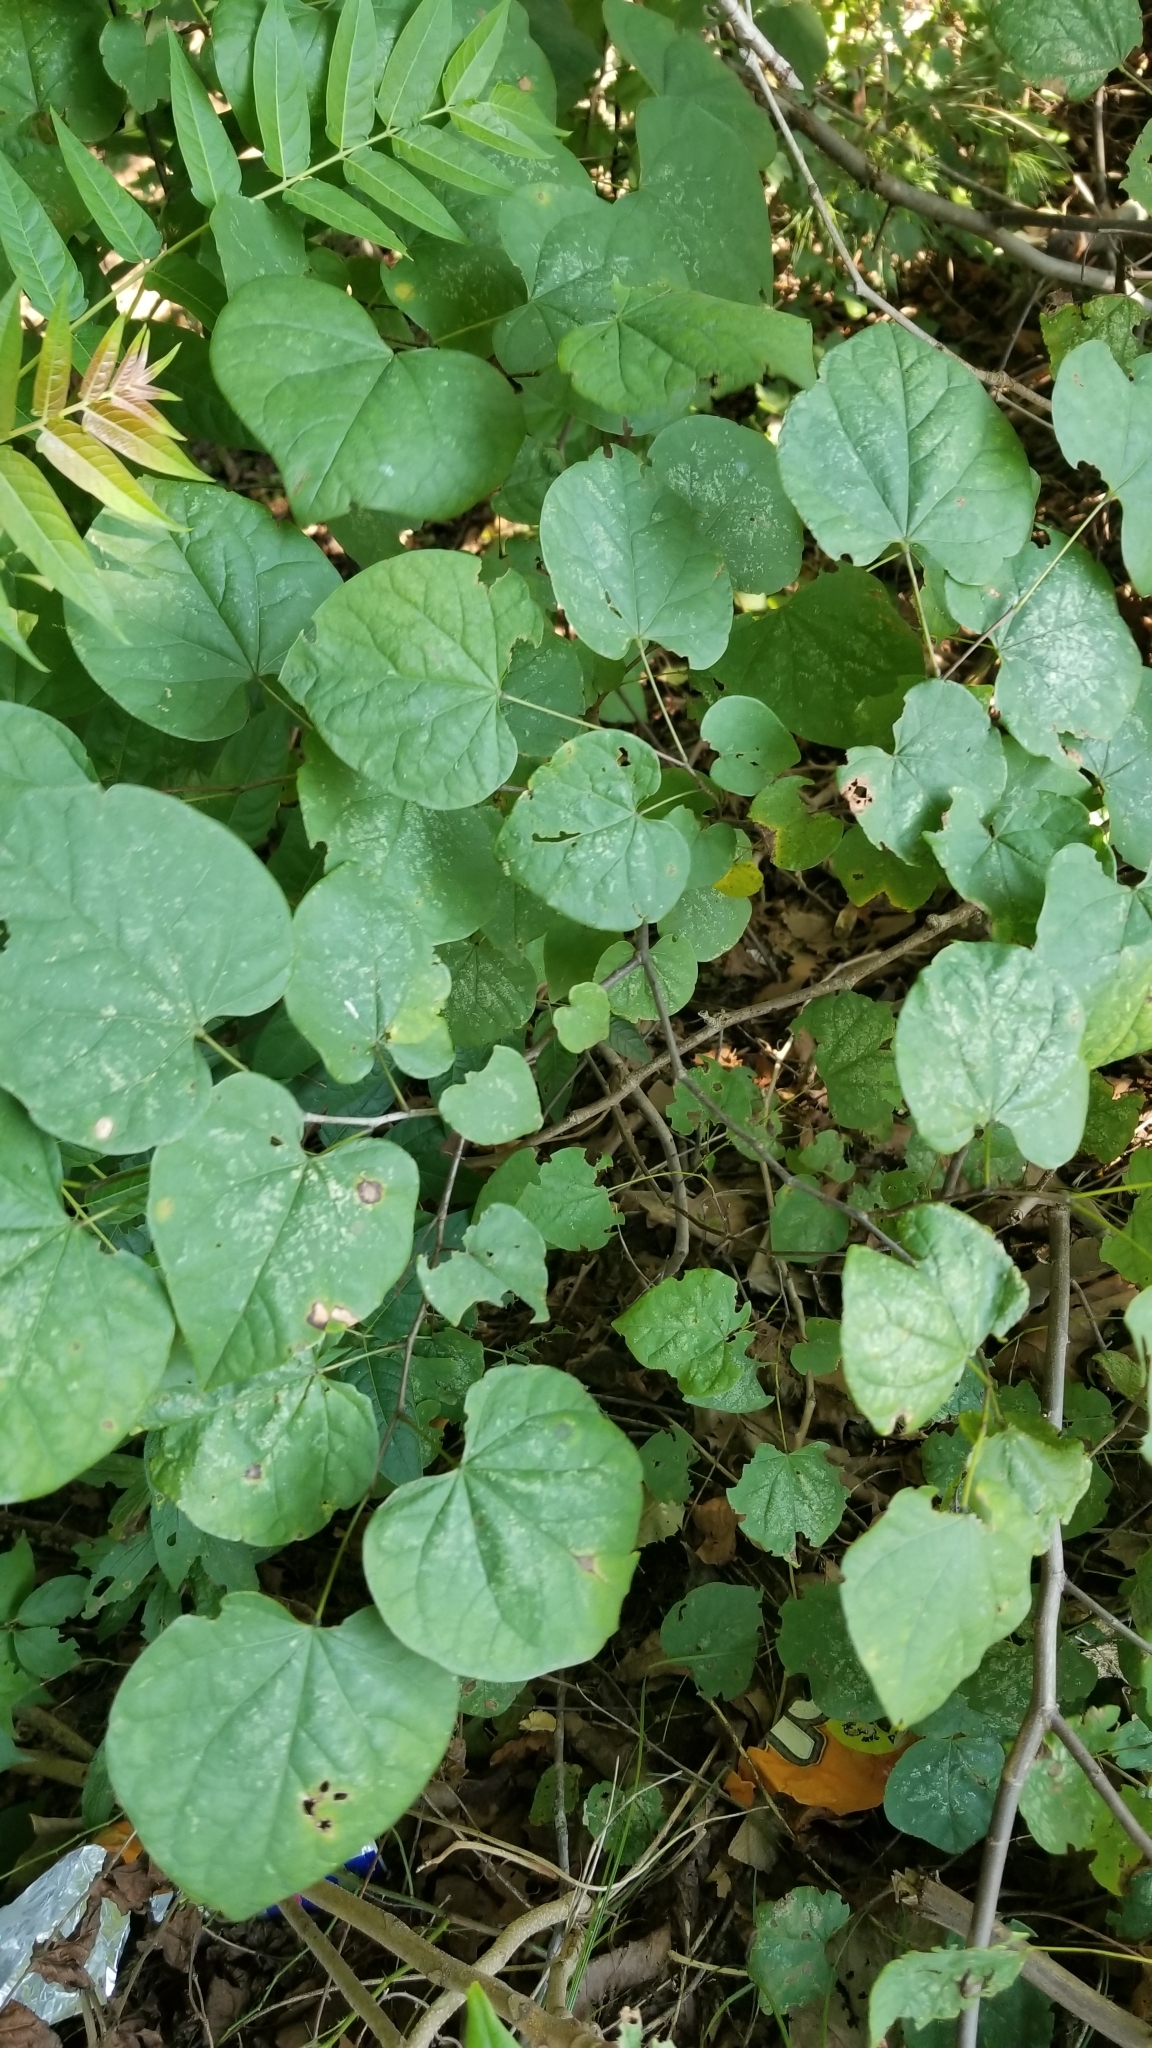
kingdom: Plantae
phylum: Tracheophyta
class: Magnoliopsida
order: Fabales
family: Fabaceae
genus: Cercis
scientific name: Cercis canadensis
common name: Eastern redbud
